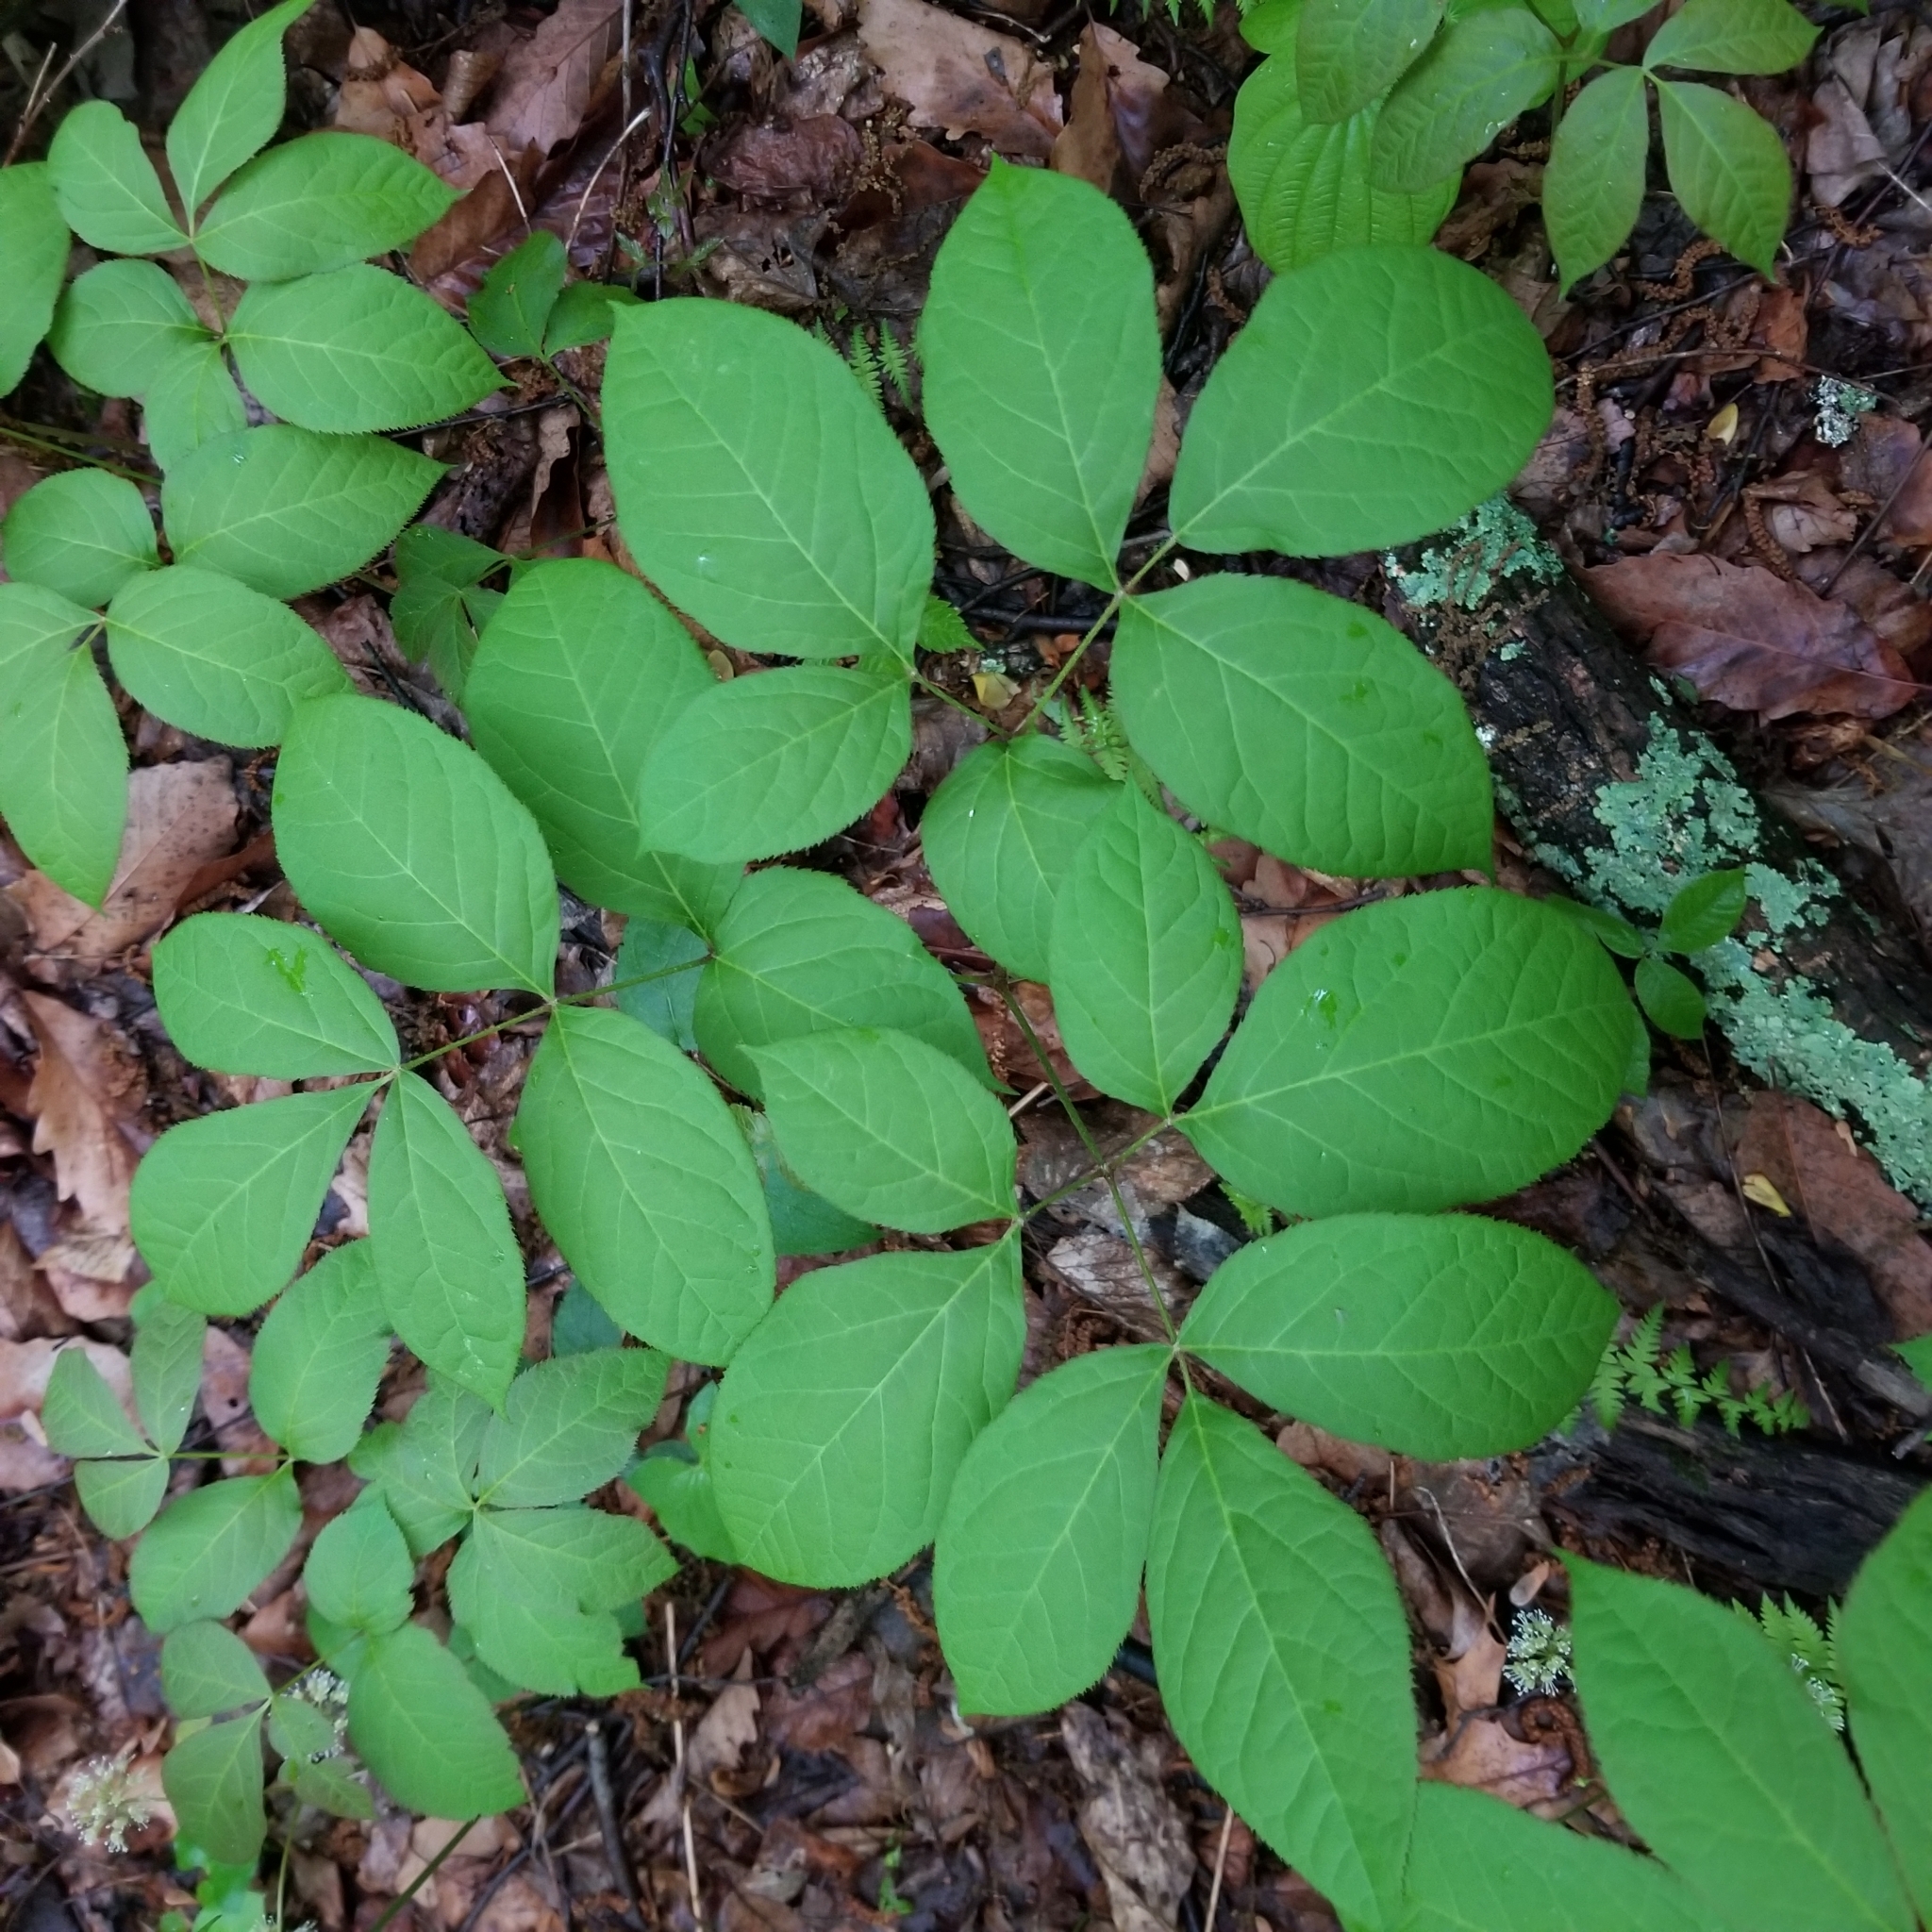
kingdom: Plantae
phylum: Tracheophyta
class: Magnoliopsida
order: Apiales
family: Araliaceae
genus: Aralia
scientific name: Aralia nudicaulis
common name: Wild sarsaparilla
